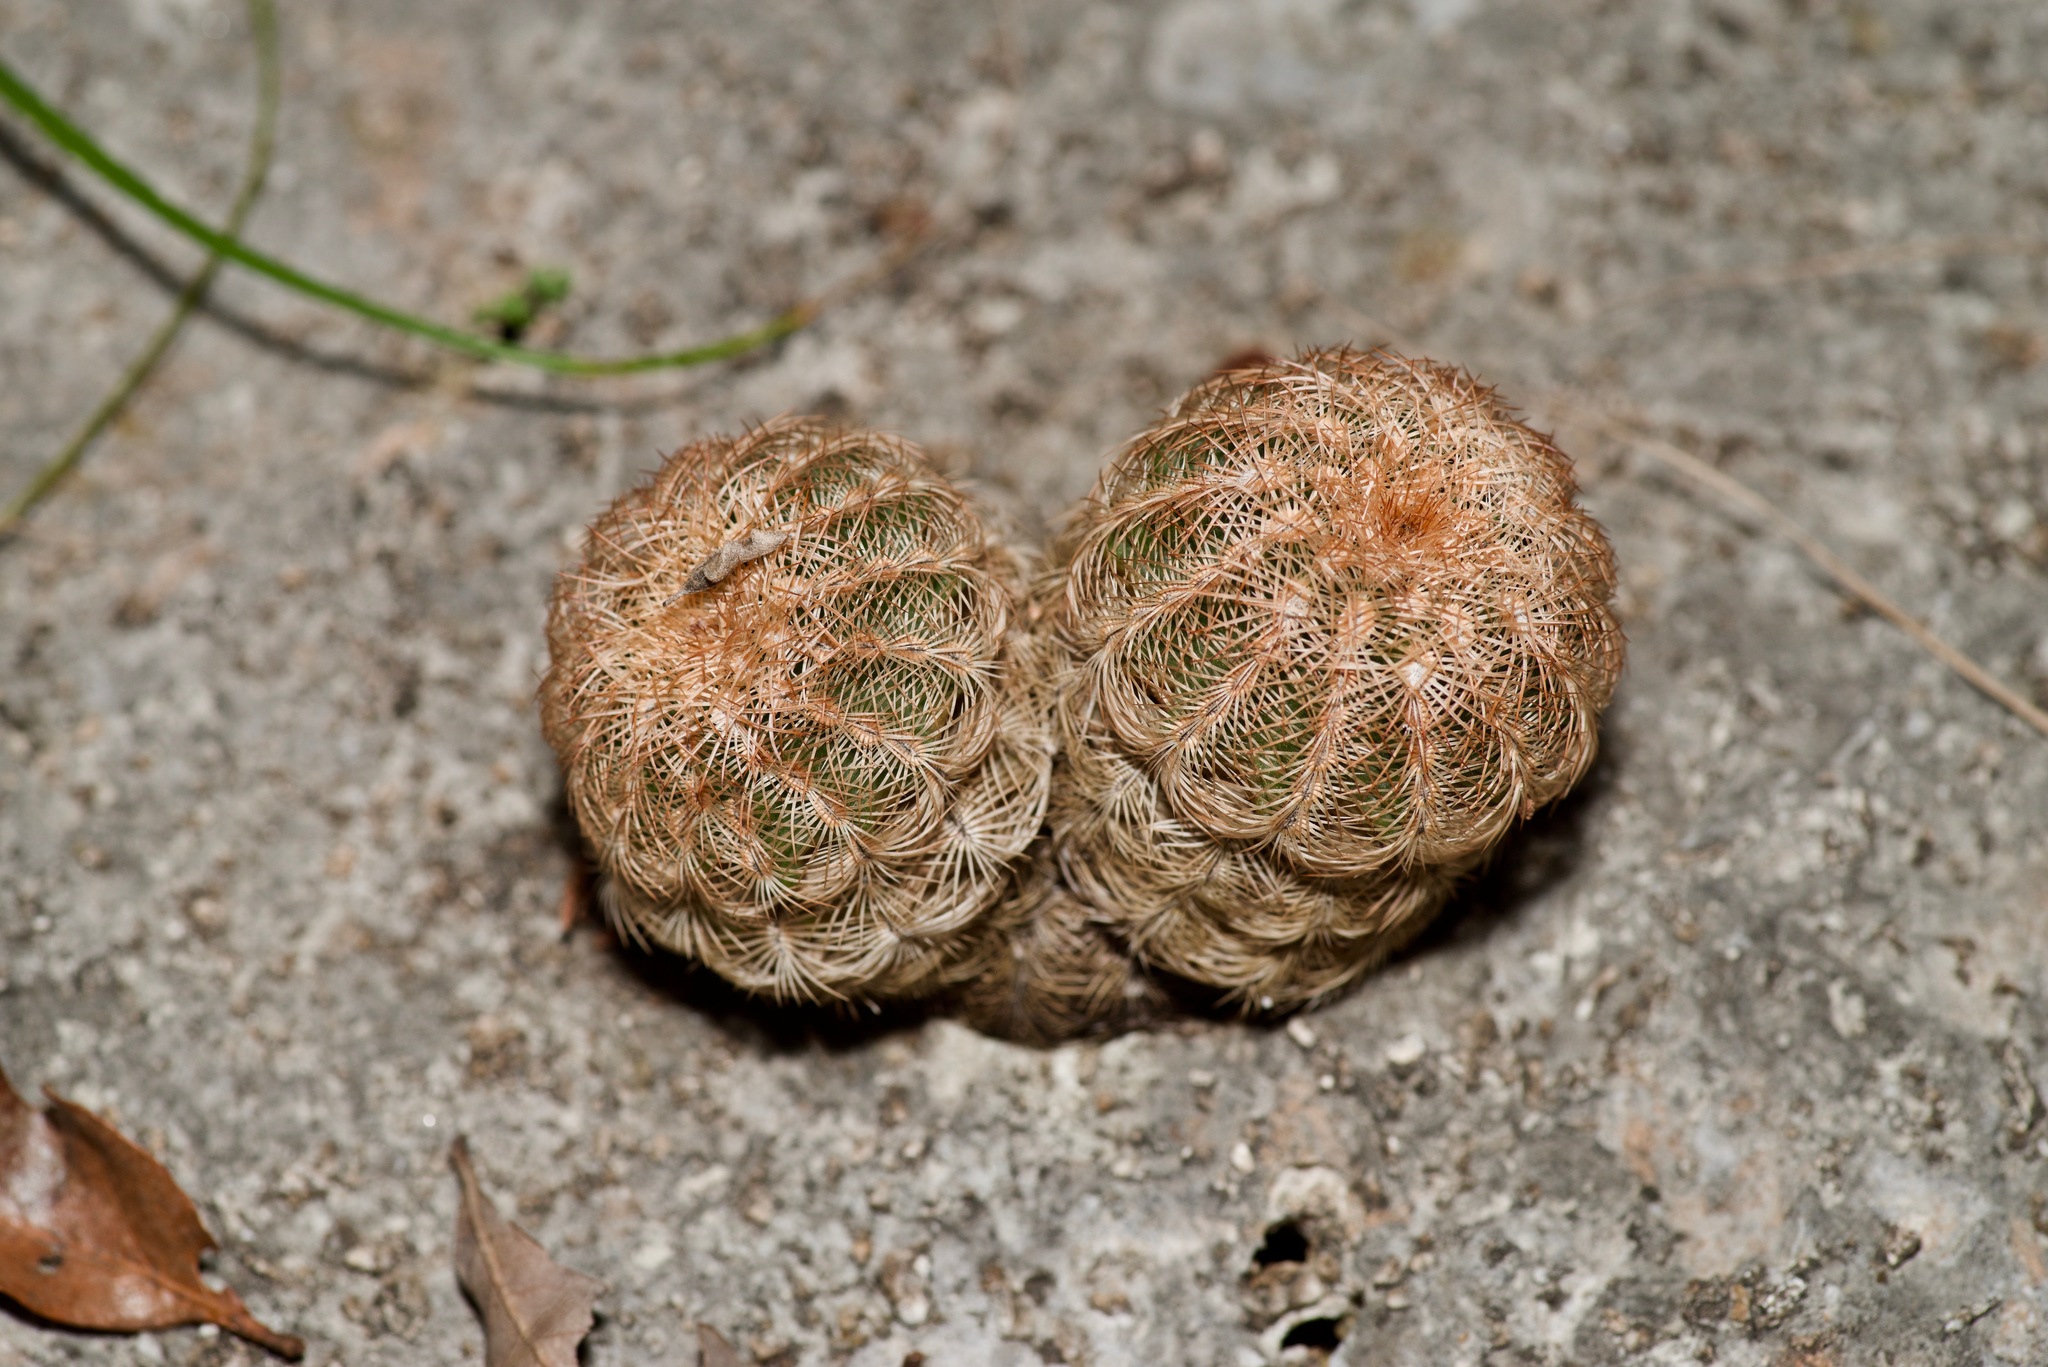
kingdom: Plantae
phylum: Tracheophyta
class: Magnoliopsida
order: Caryophyllales
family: Cactaceae
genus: Echinocereus
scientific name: Echinocereus reichenbachii
